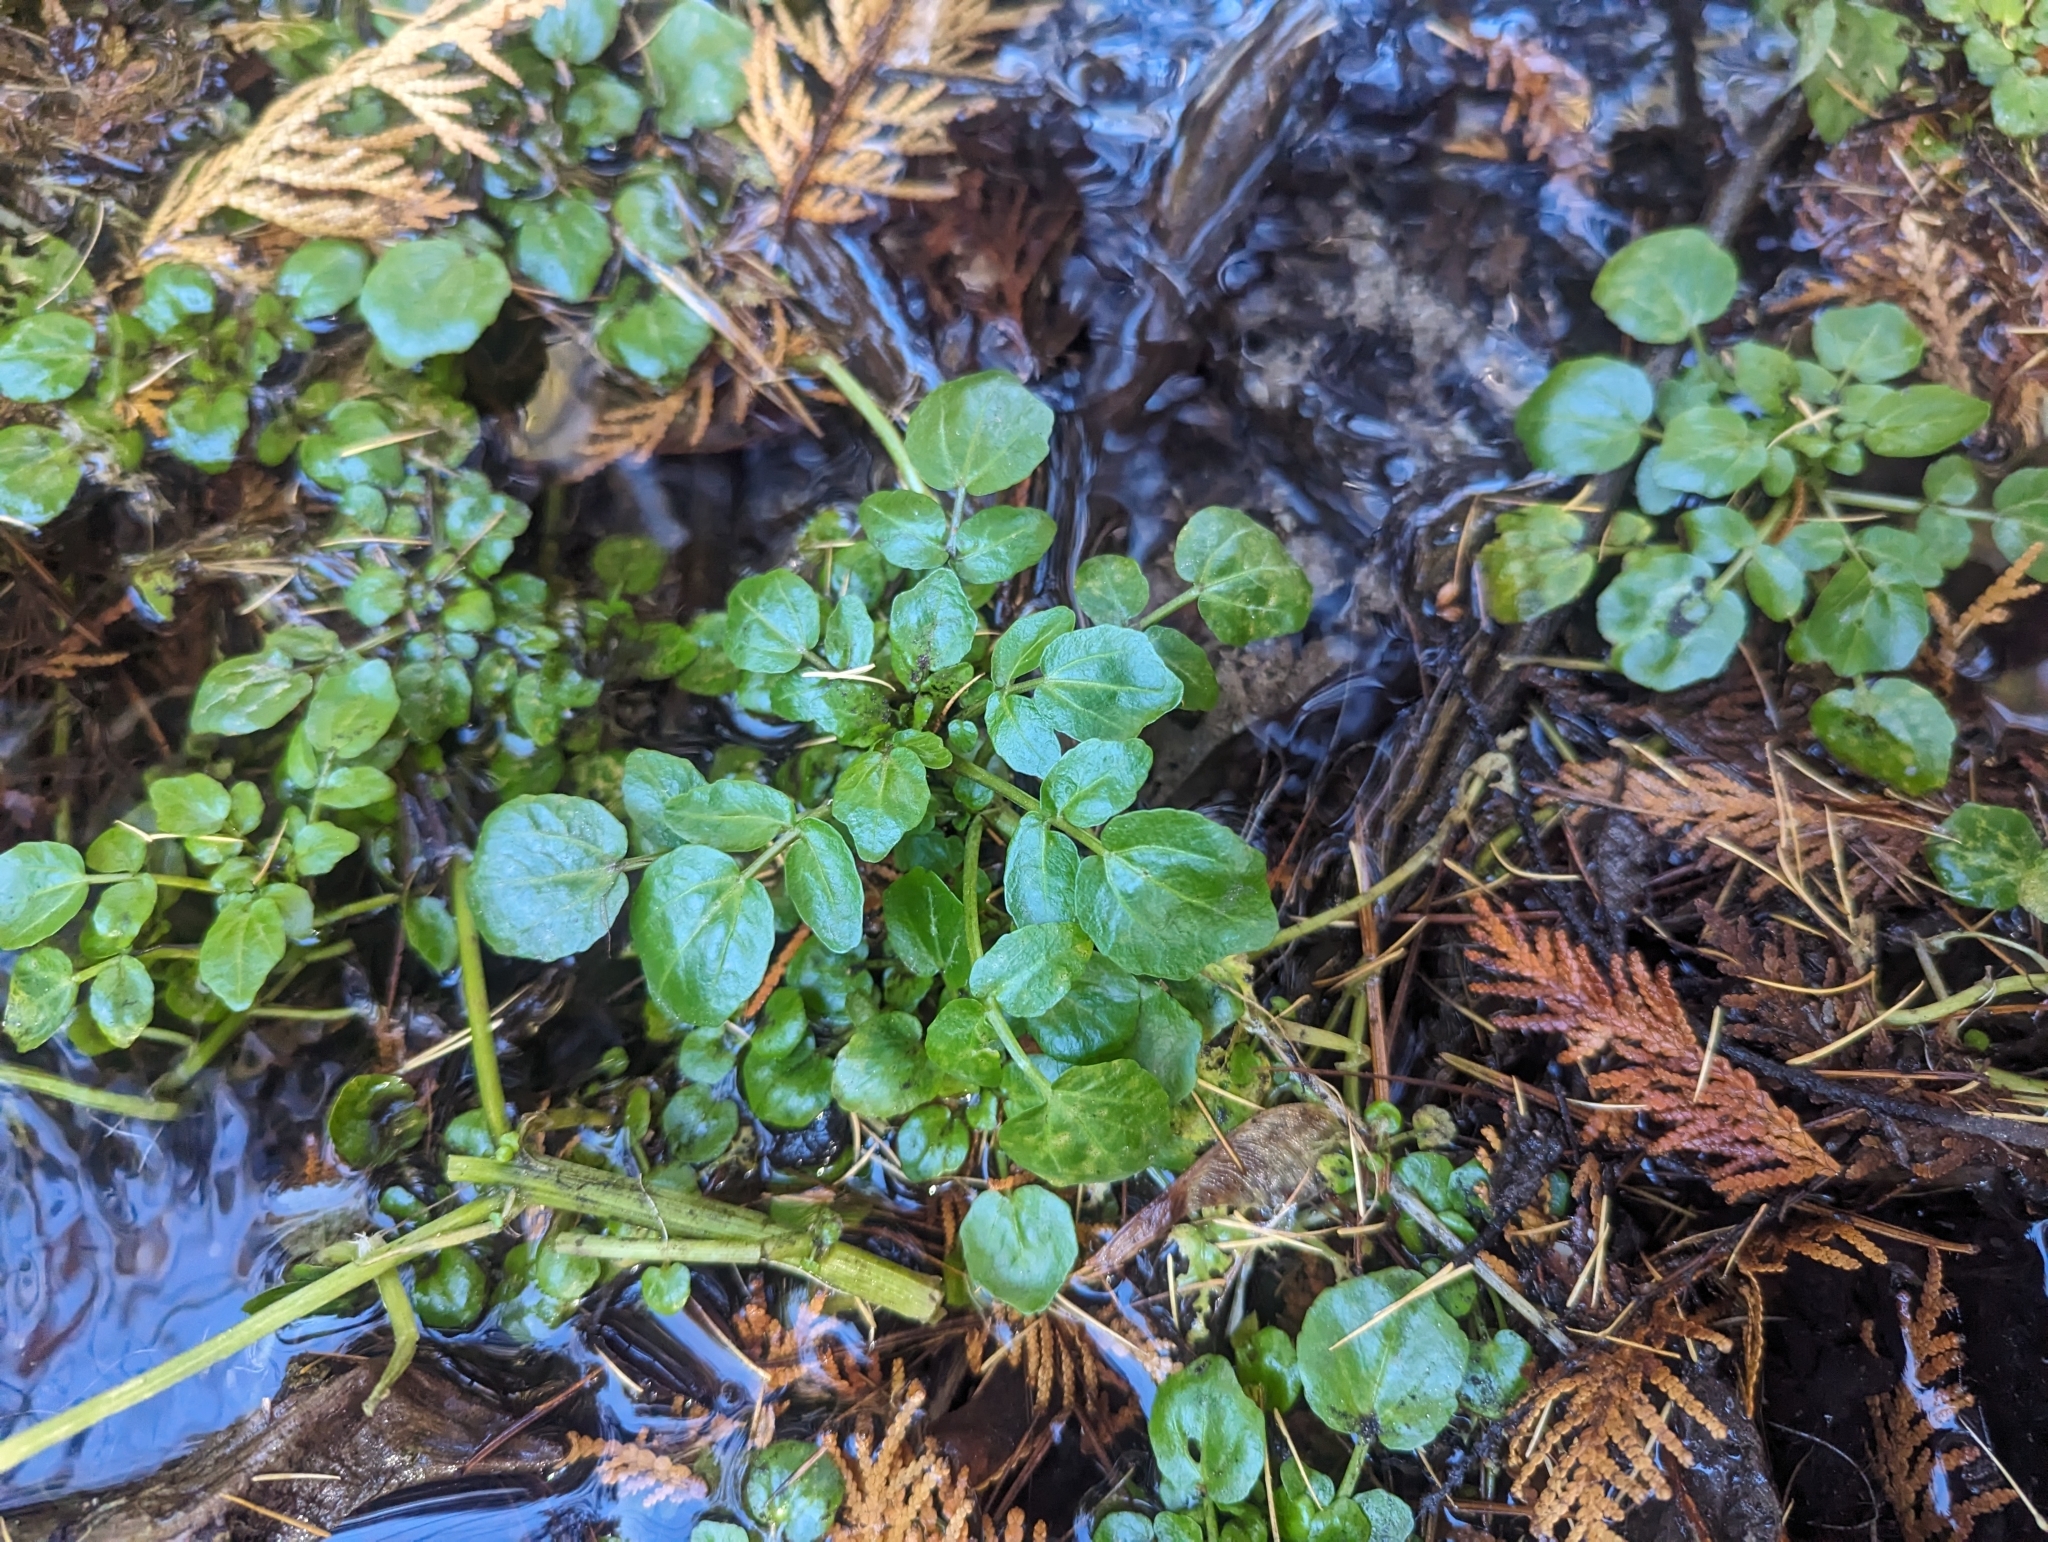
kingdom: Plantae
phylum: Tracheophyta
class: Magnoliopsida
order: Brassicales
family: Brassicaceae
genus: Nasturtium
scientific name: Nasturtium officinale
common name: Watercress
